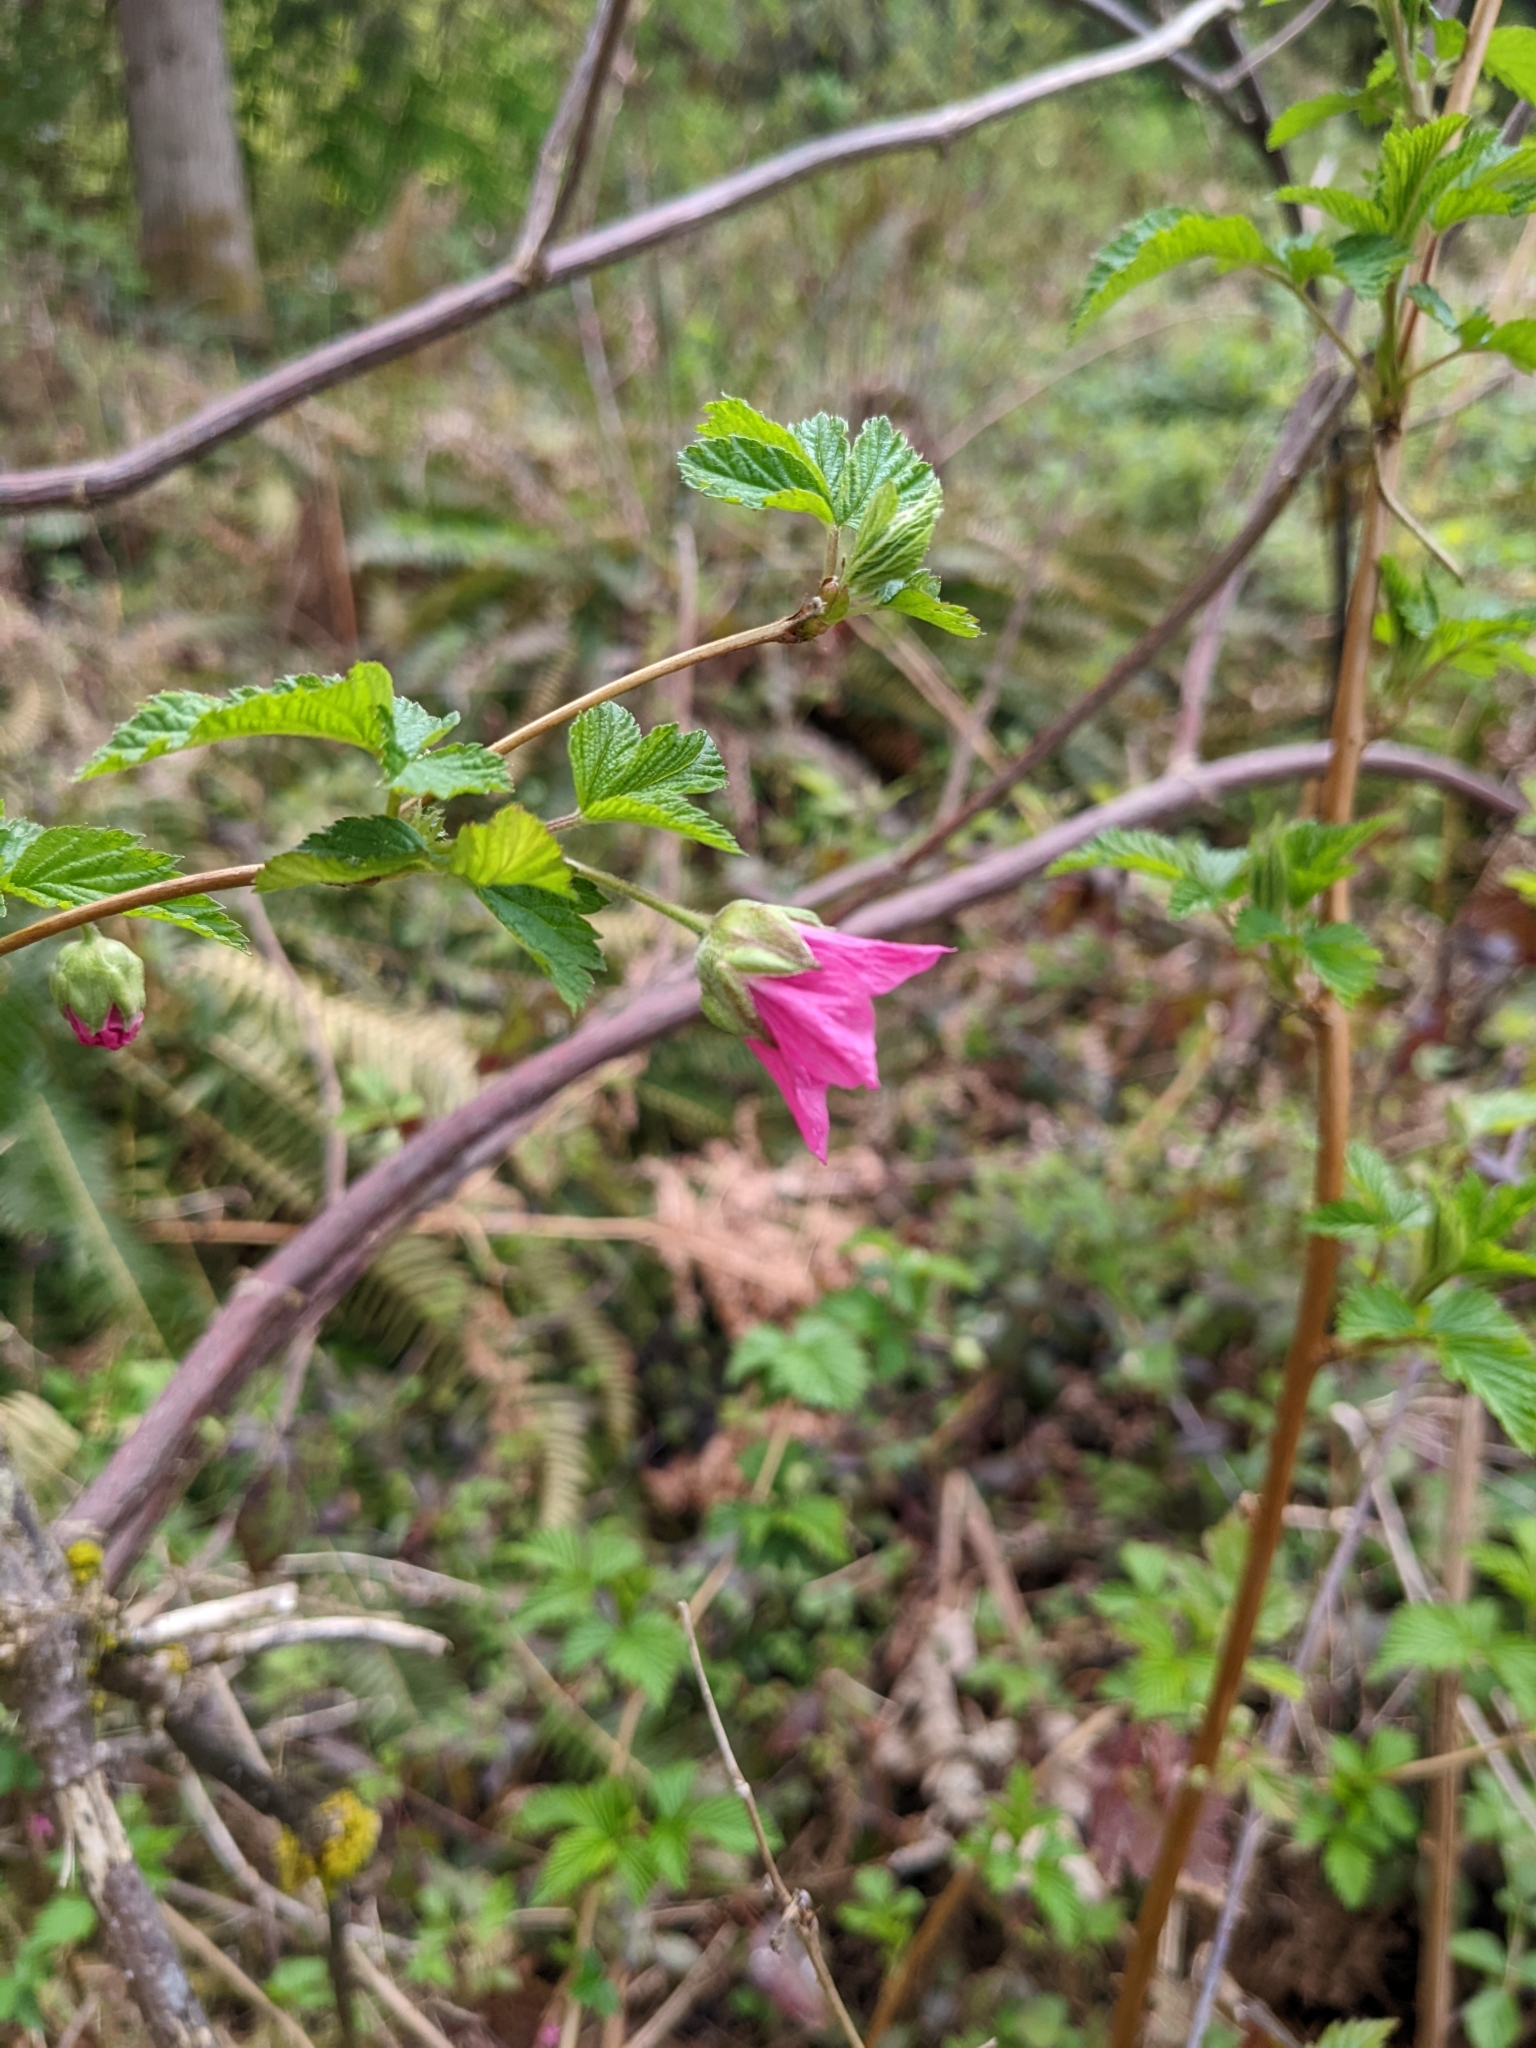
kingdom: Plantae
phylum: Tracheophyta
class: Magnoliopsida
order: Rosales
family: Rosaceae
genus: Rubus
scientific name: Rubus spectabilis
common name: Salmonberry
